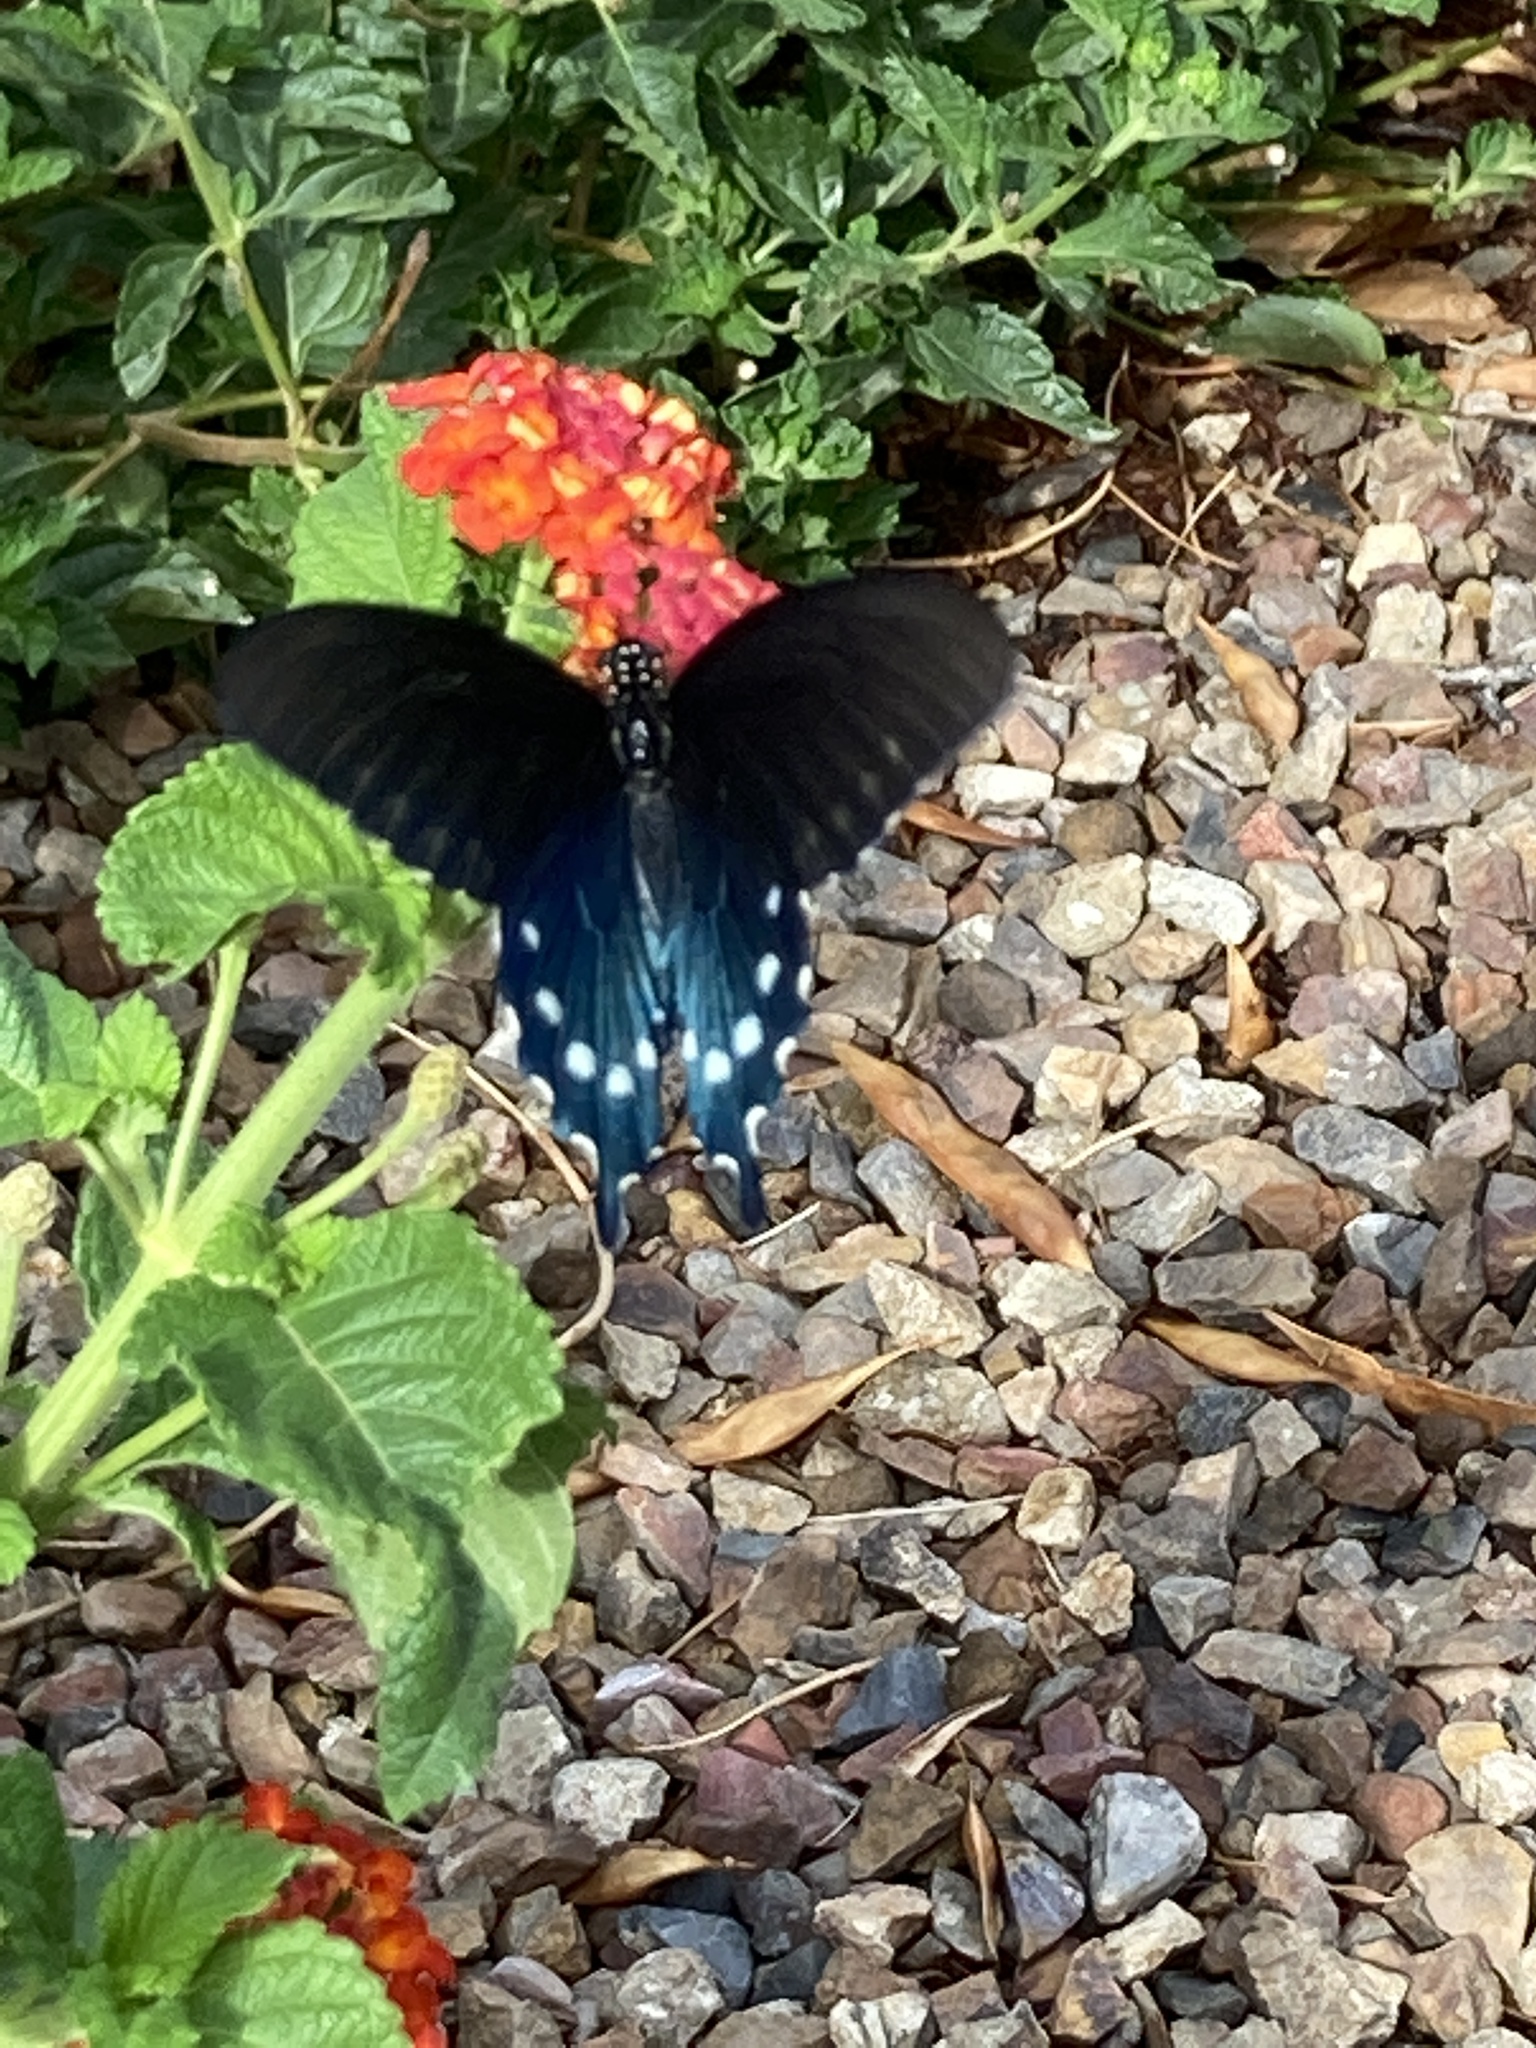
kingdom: Animalia
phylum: Arthropoda
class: Insecta
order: Lepidoptera
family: Papilionidae
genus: Battus
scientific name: Battus philenor
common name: Pipevine swallowtail
